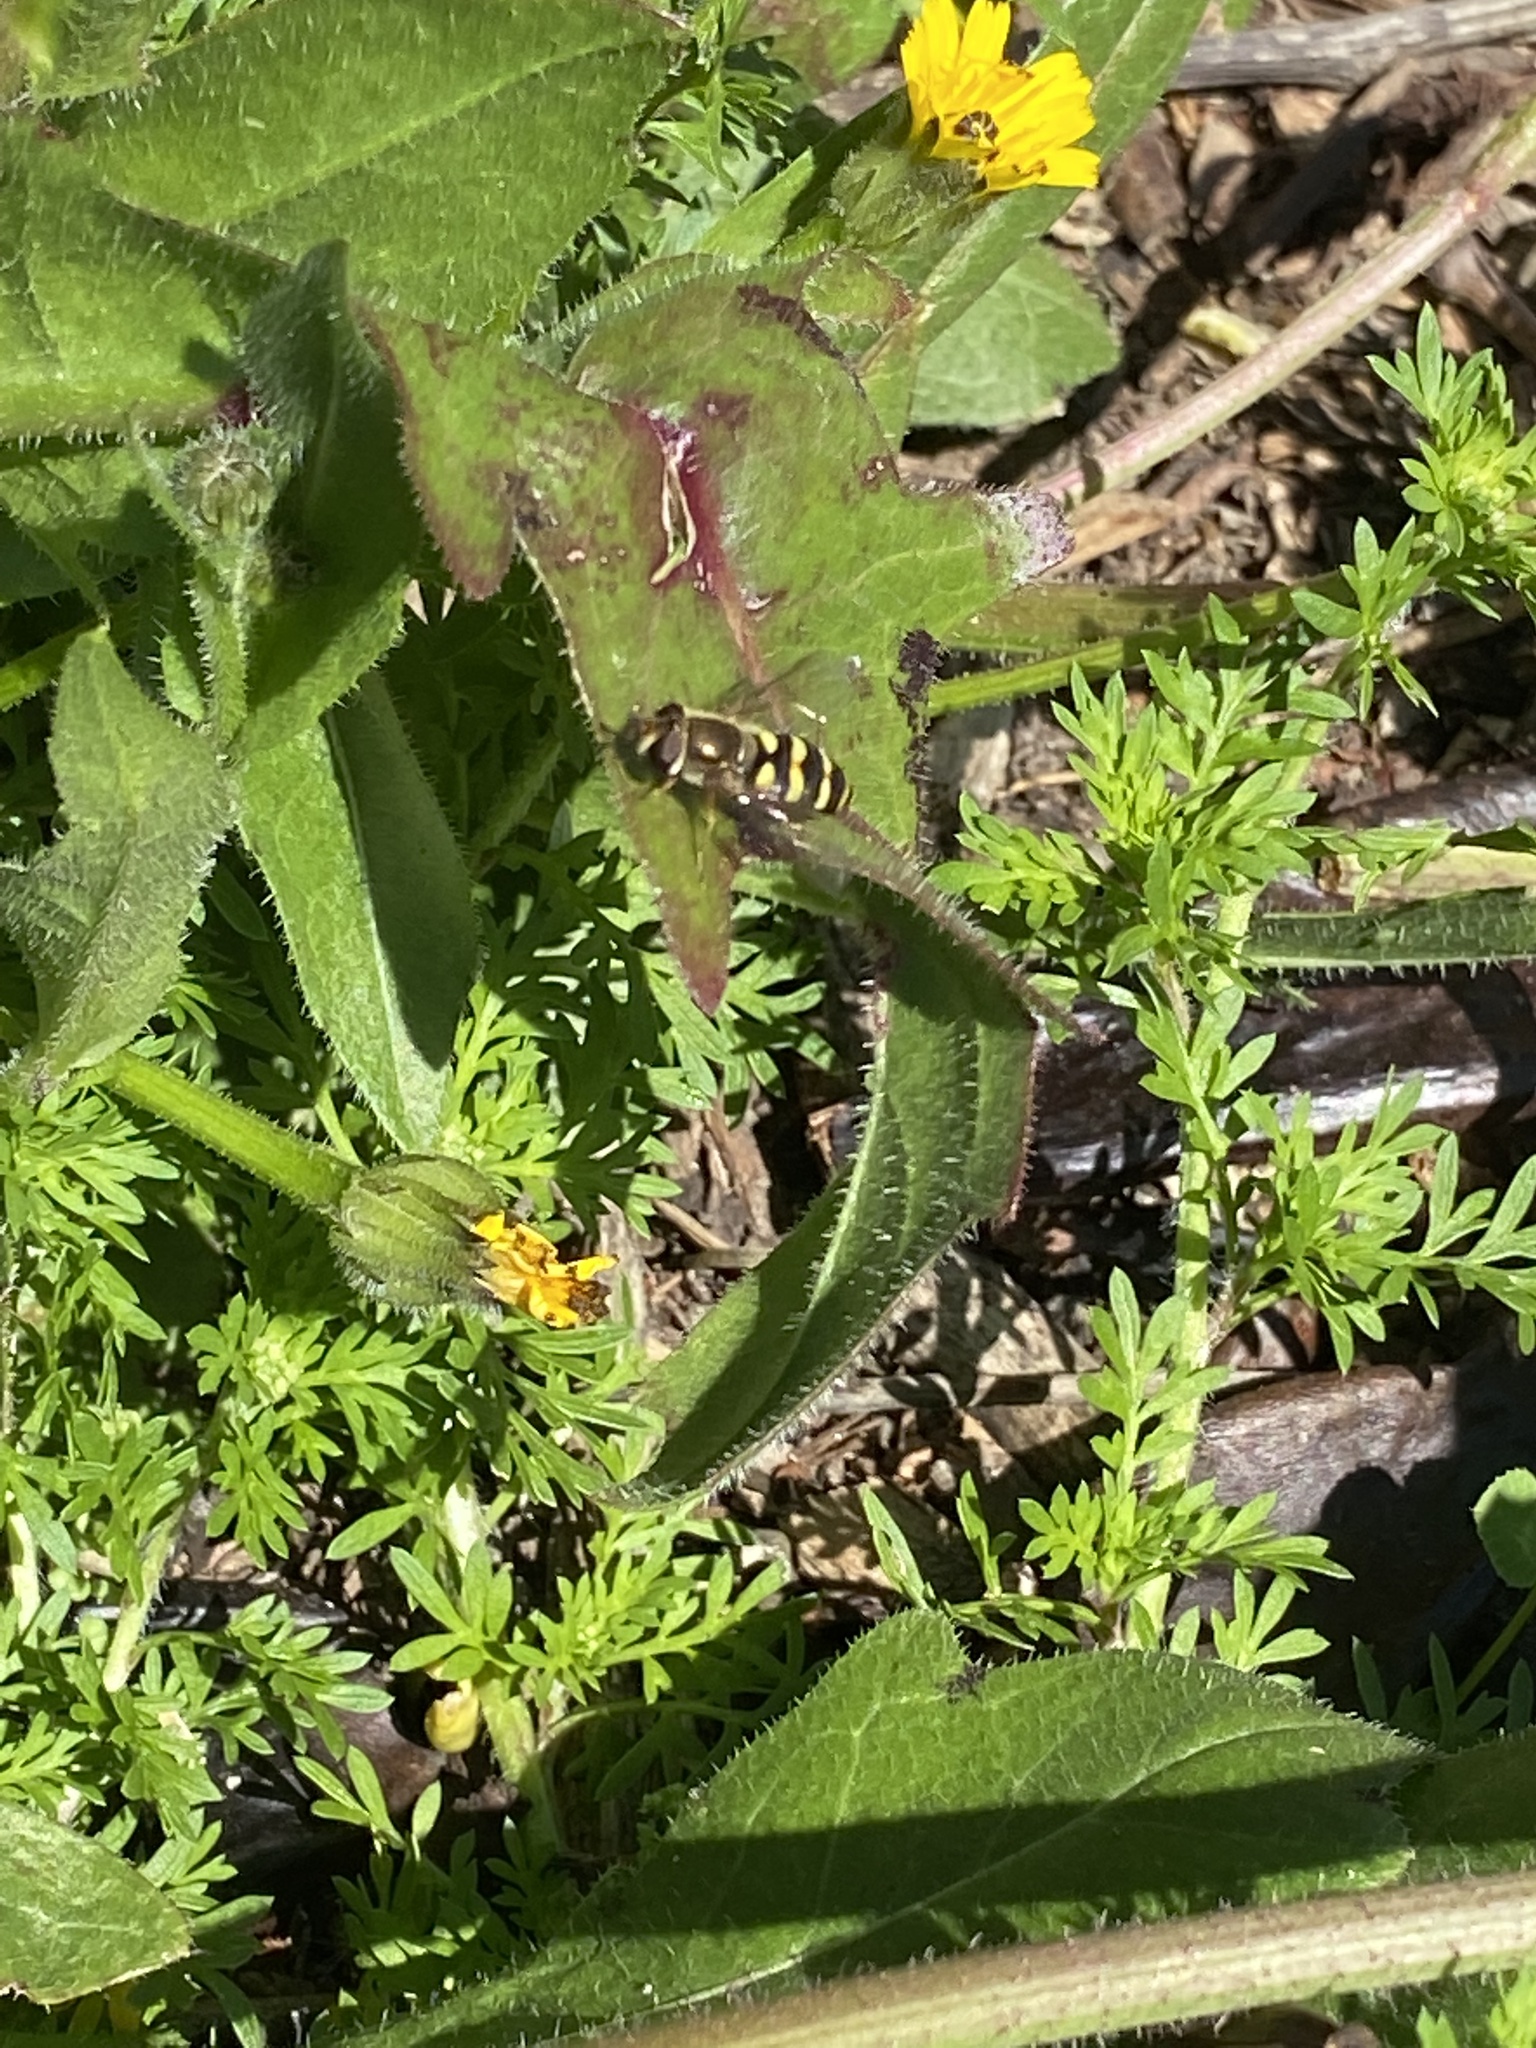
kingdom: Animalia
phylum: Arthropoda
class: Insecta
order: Diptera
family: Syrphidae
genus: Eupeodes
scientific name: Eupeodes fumipennis
